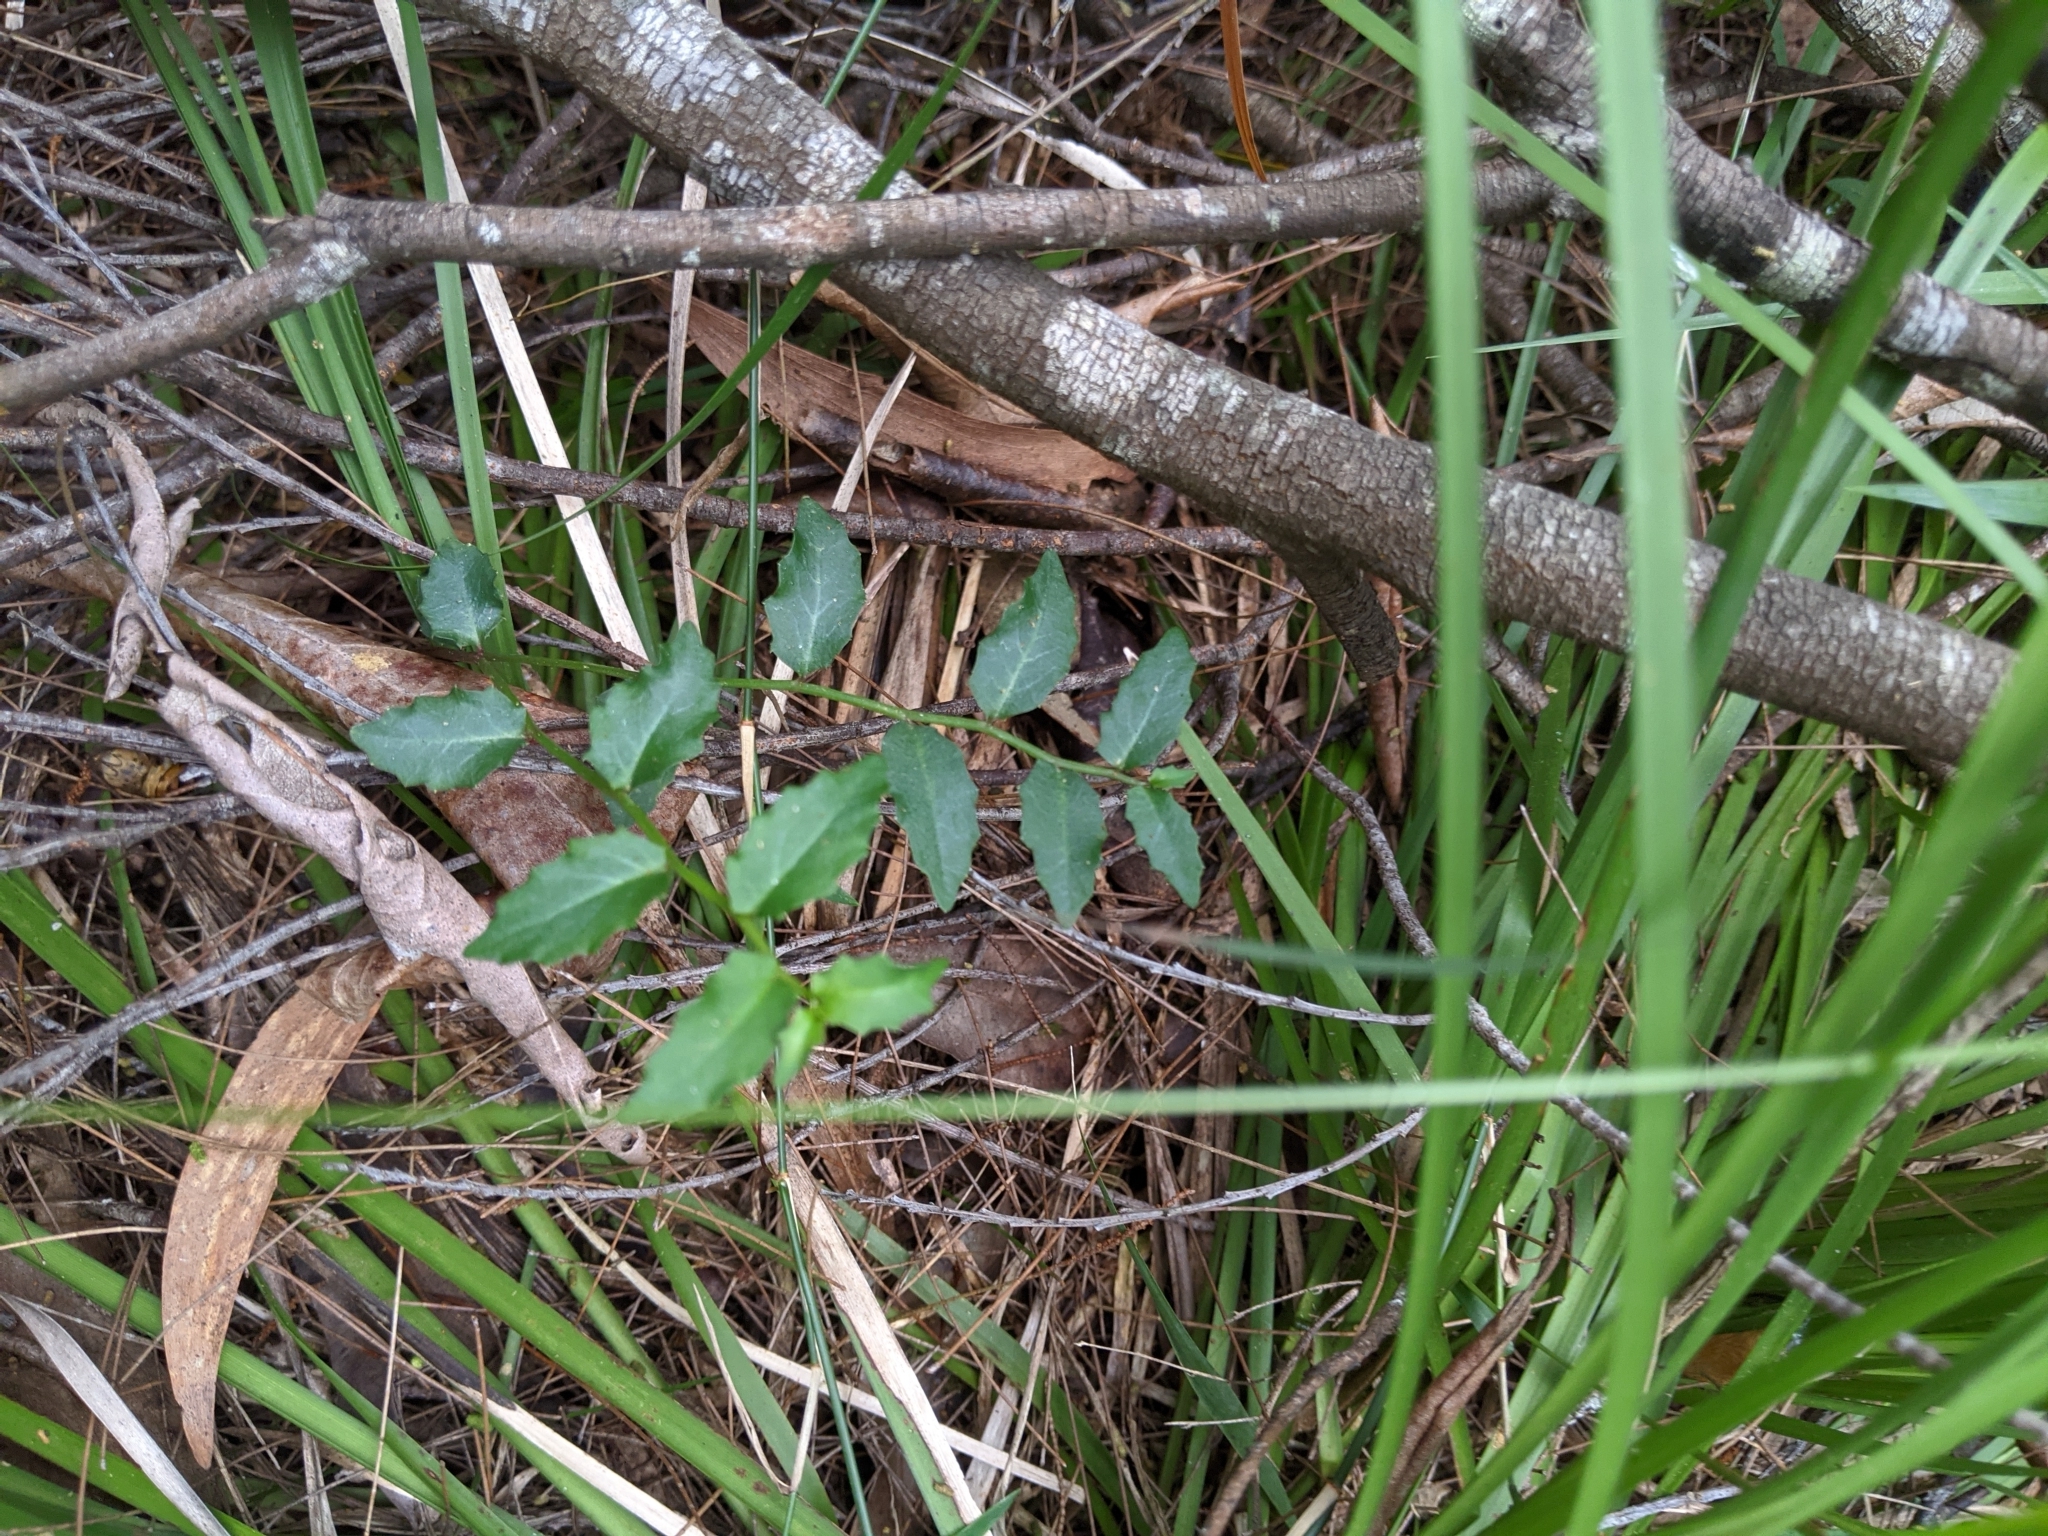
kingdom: Plantae
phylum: Tracheophyta
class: Magnoliopsida
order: Asterales
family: Campanulaceae
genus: Lobelia
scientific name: Lobelia purpurascens
